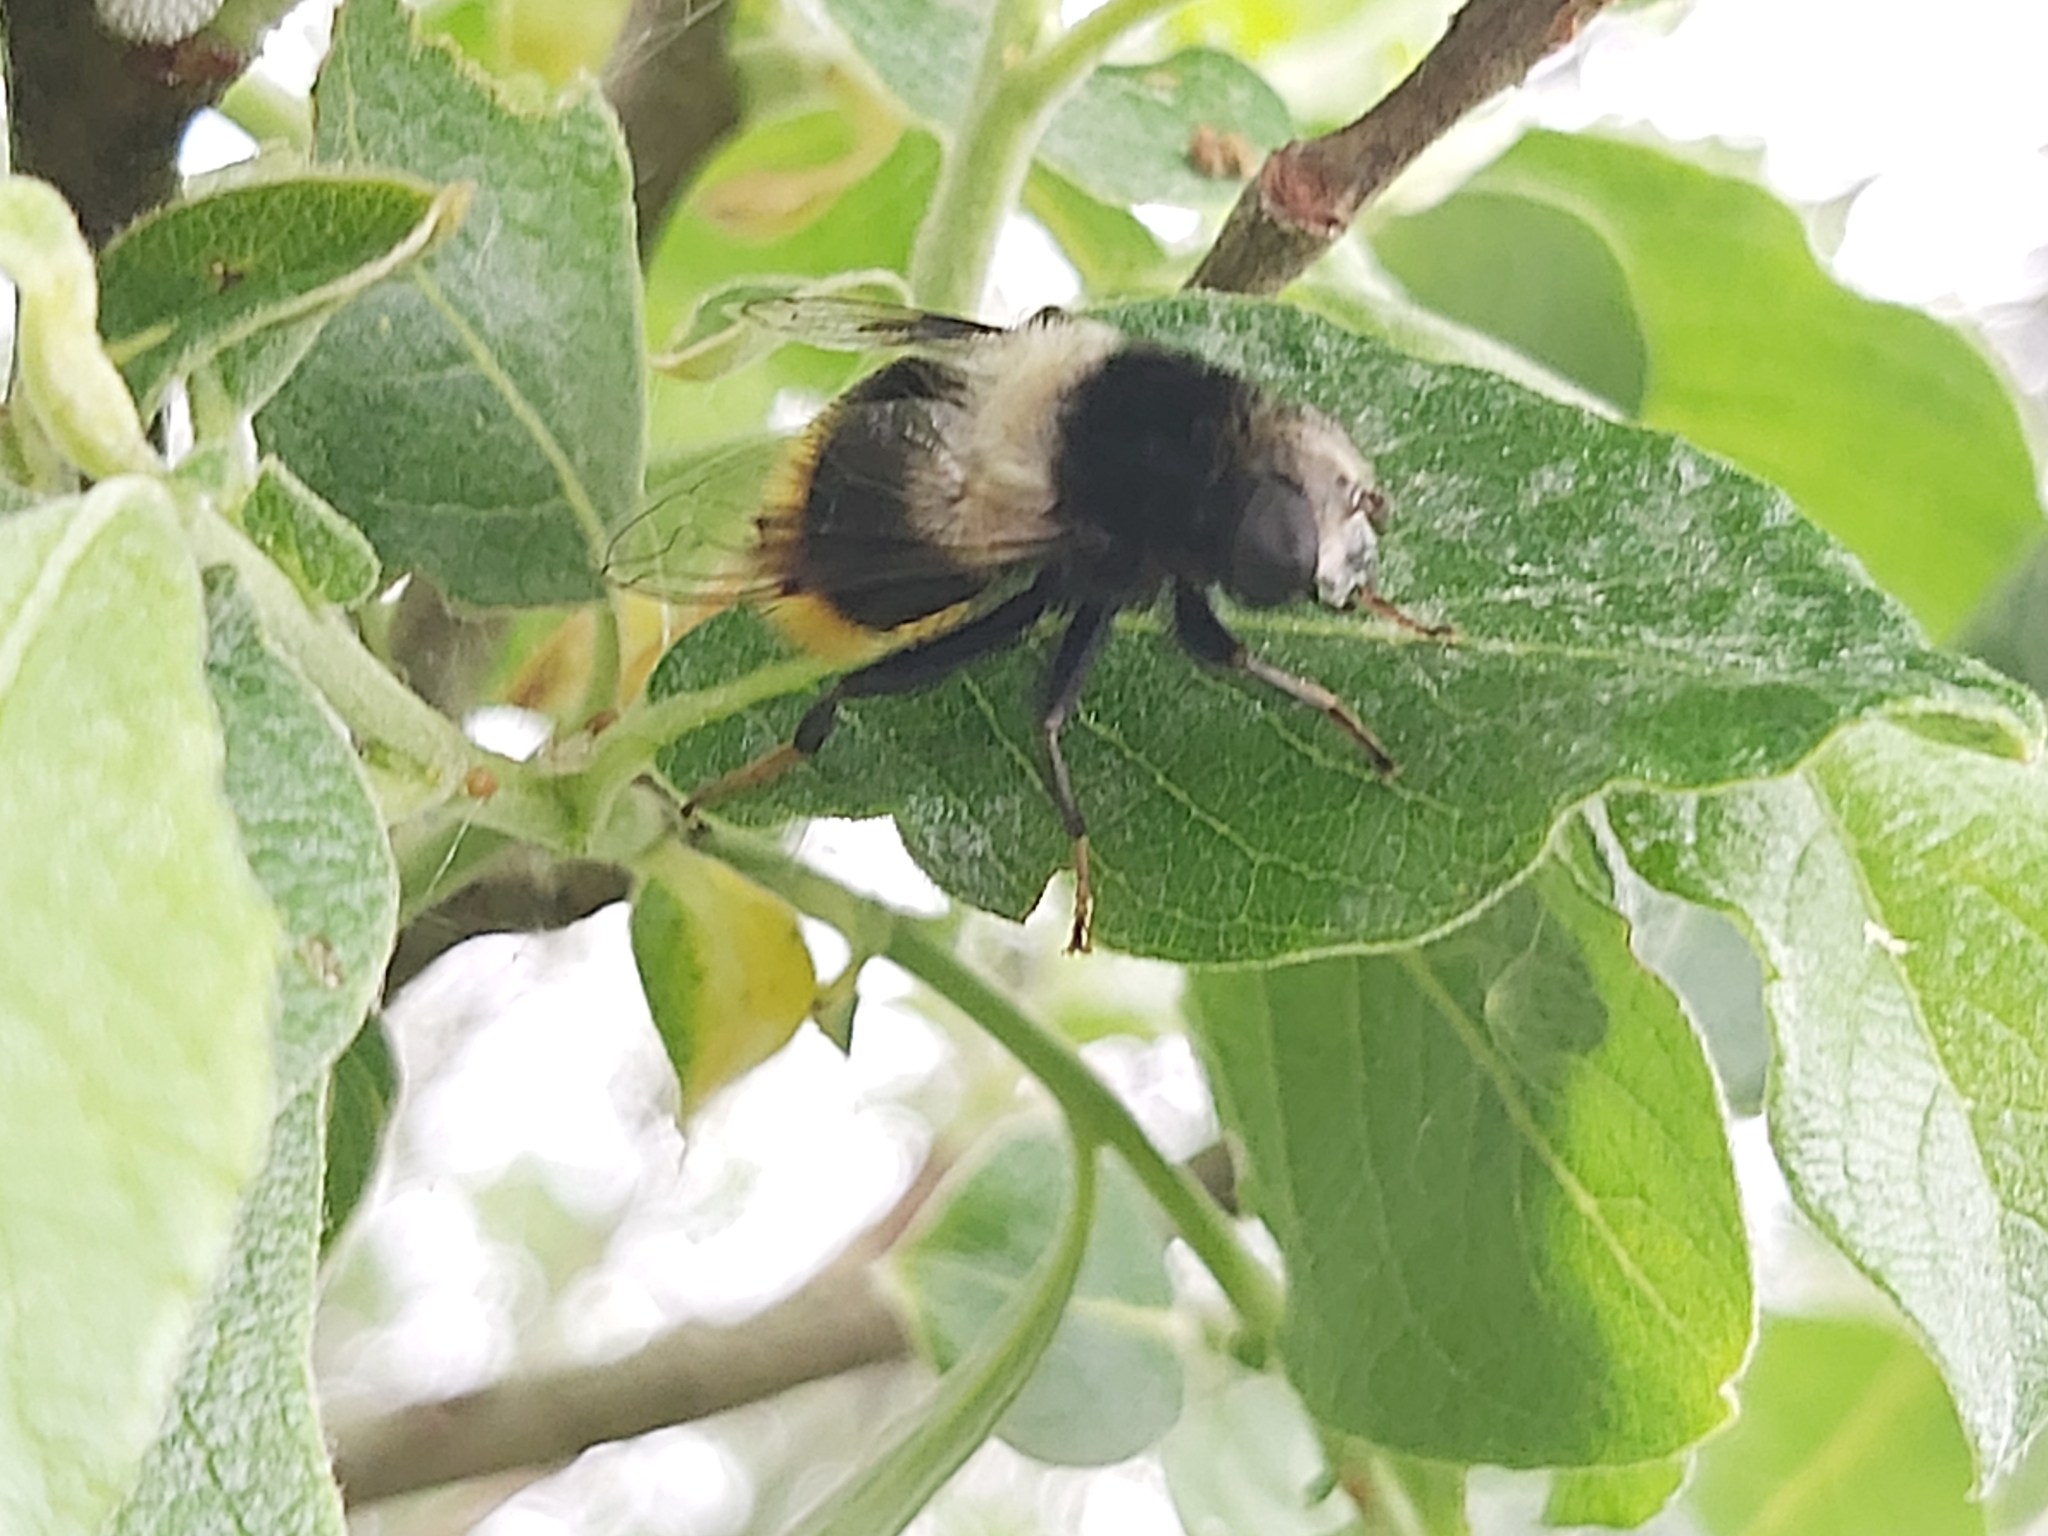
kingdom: Animalia
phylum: Arthropoda
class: Insecta
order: Diptera
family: Syrphidae
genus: Eristalis
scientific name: Eristalis oestracea
